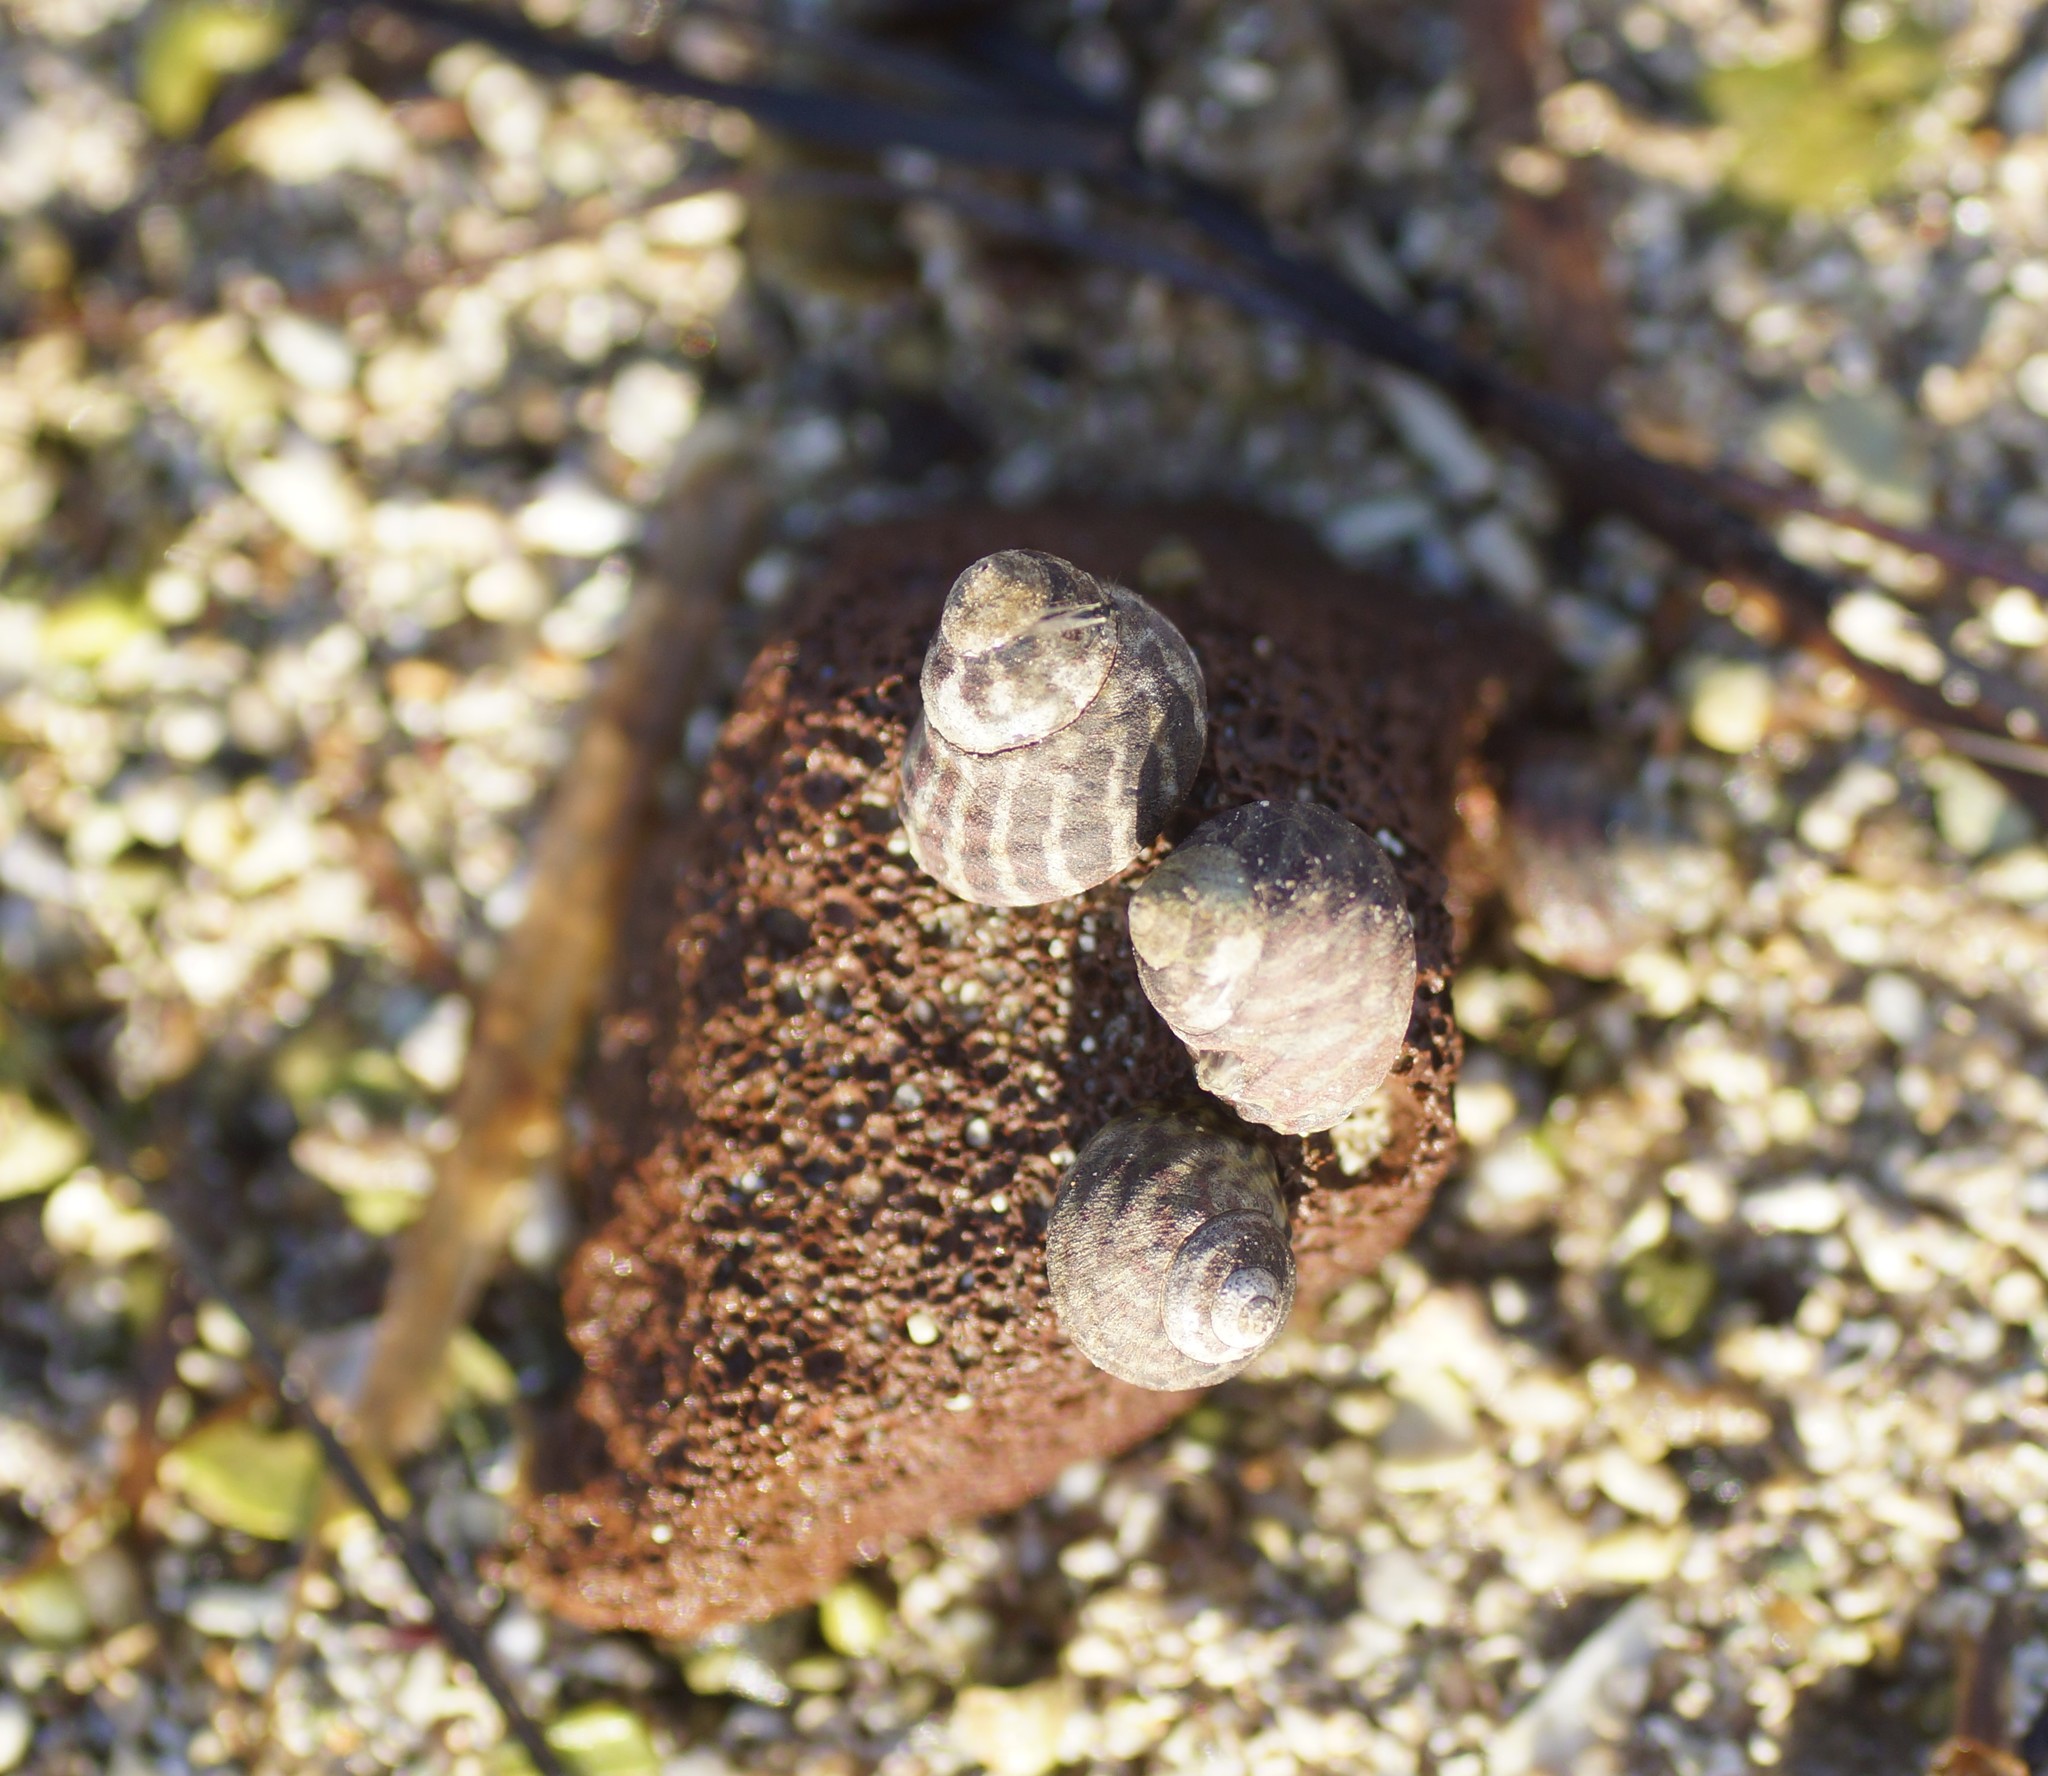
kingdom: Animalia
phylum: Mollusca
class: Gastropoda
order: Trochida
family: Trochidae
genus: Austrocochlea
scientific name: Austrocochlea porcata
